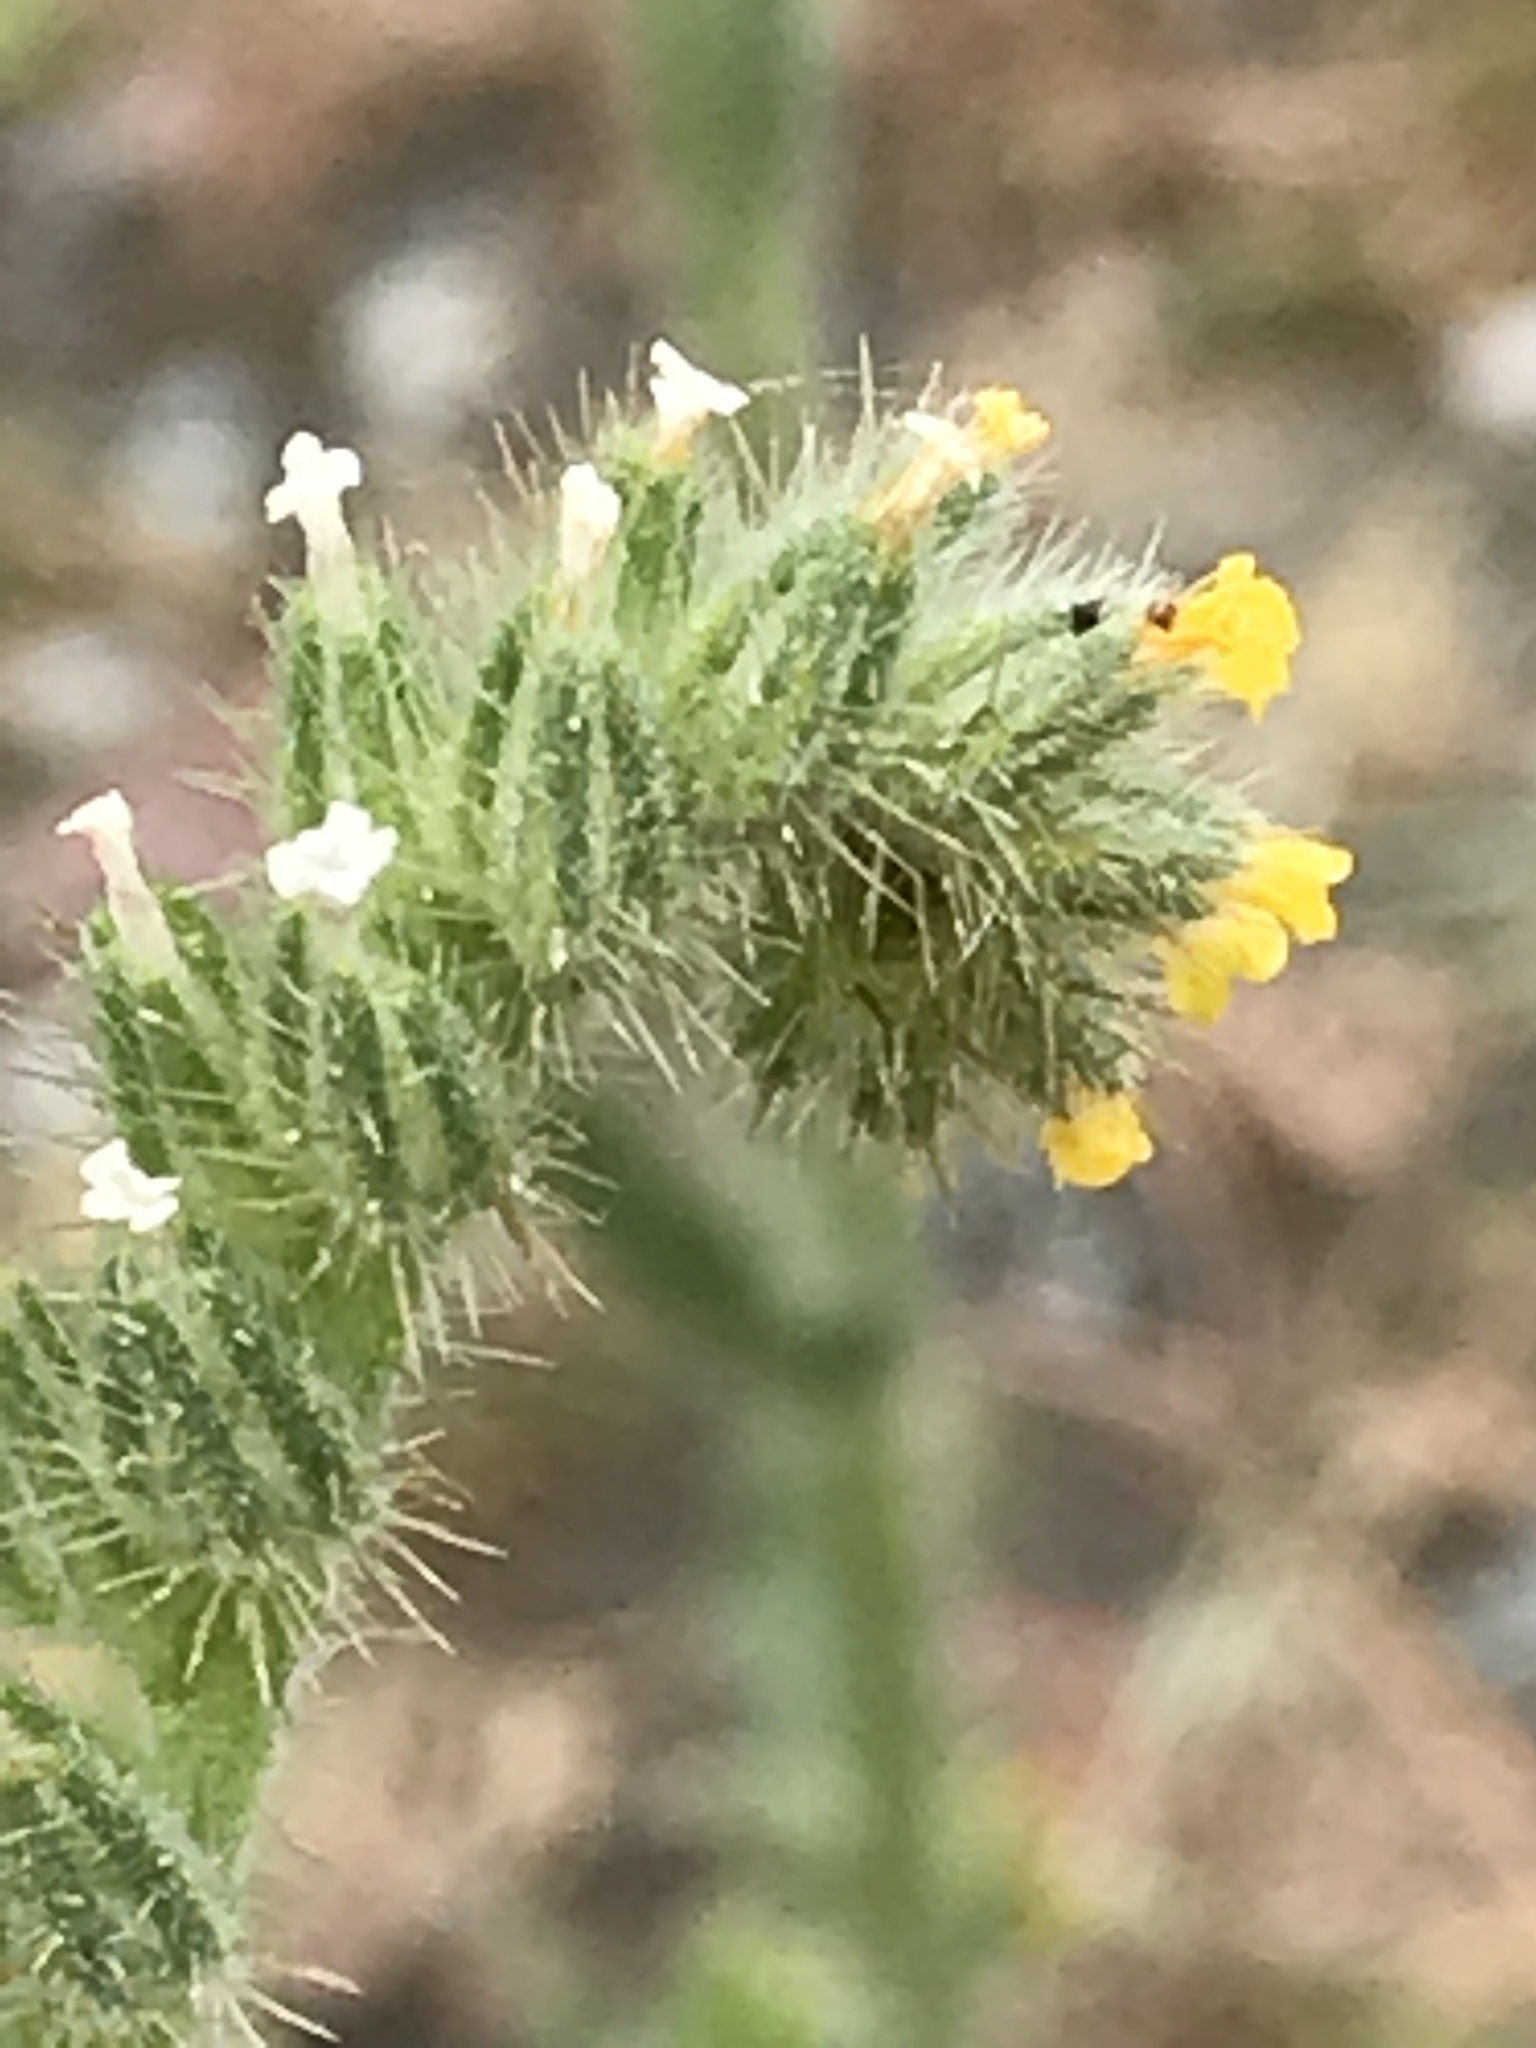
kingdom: Plantae
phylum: Tracheophyta
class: Magnoliopsida
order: Boraginales
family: Boraginaceae
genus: Amsinckia
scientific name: Amsinckia menziesii
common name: Menzies' fiddleneck
